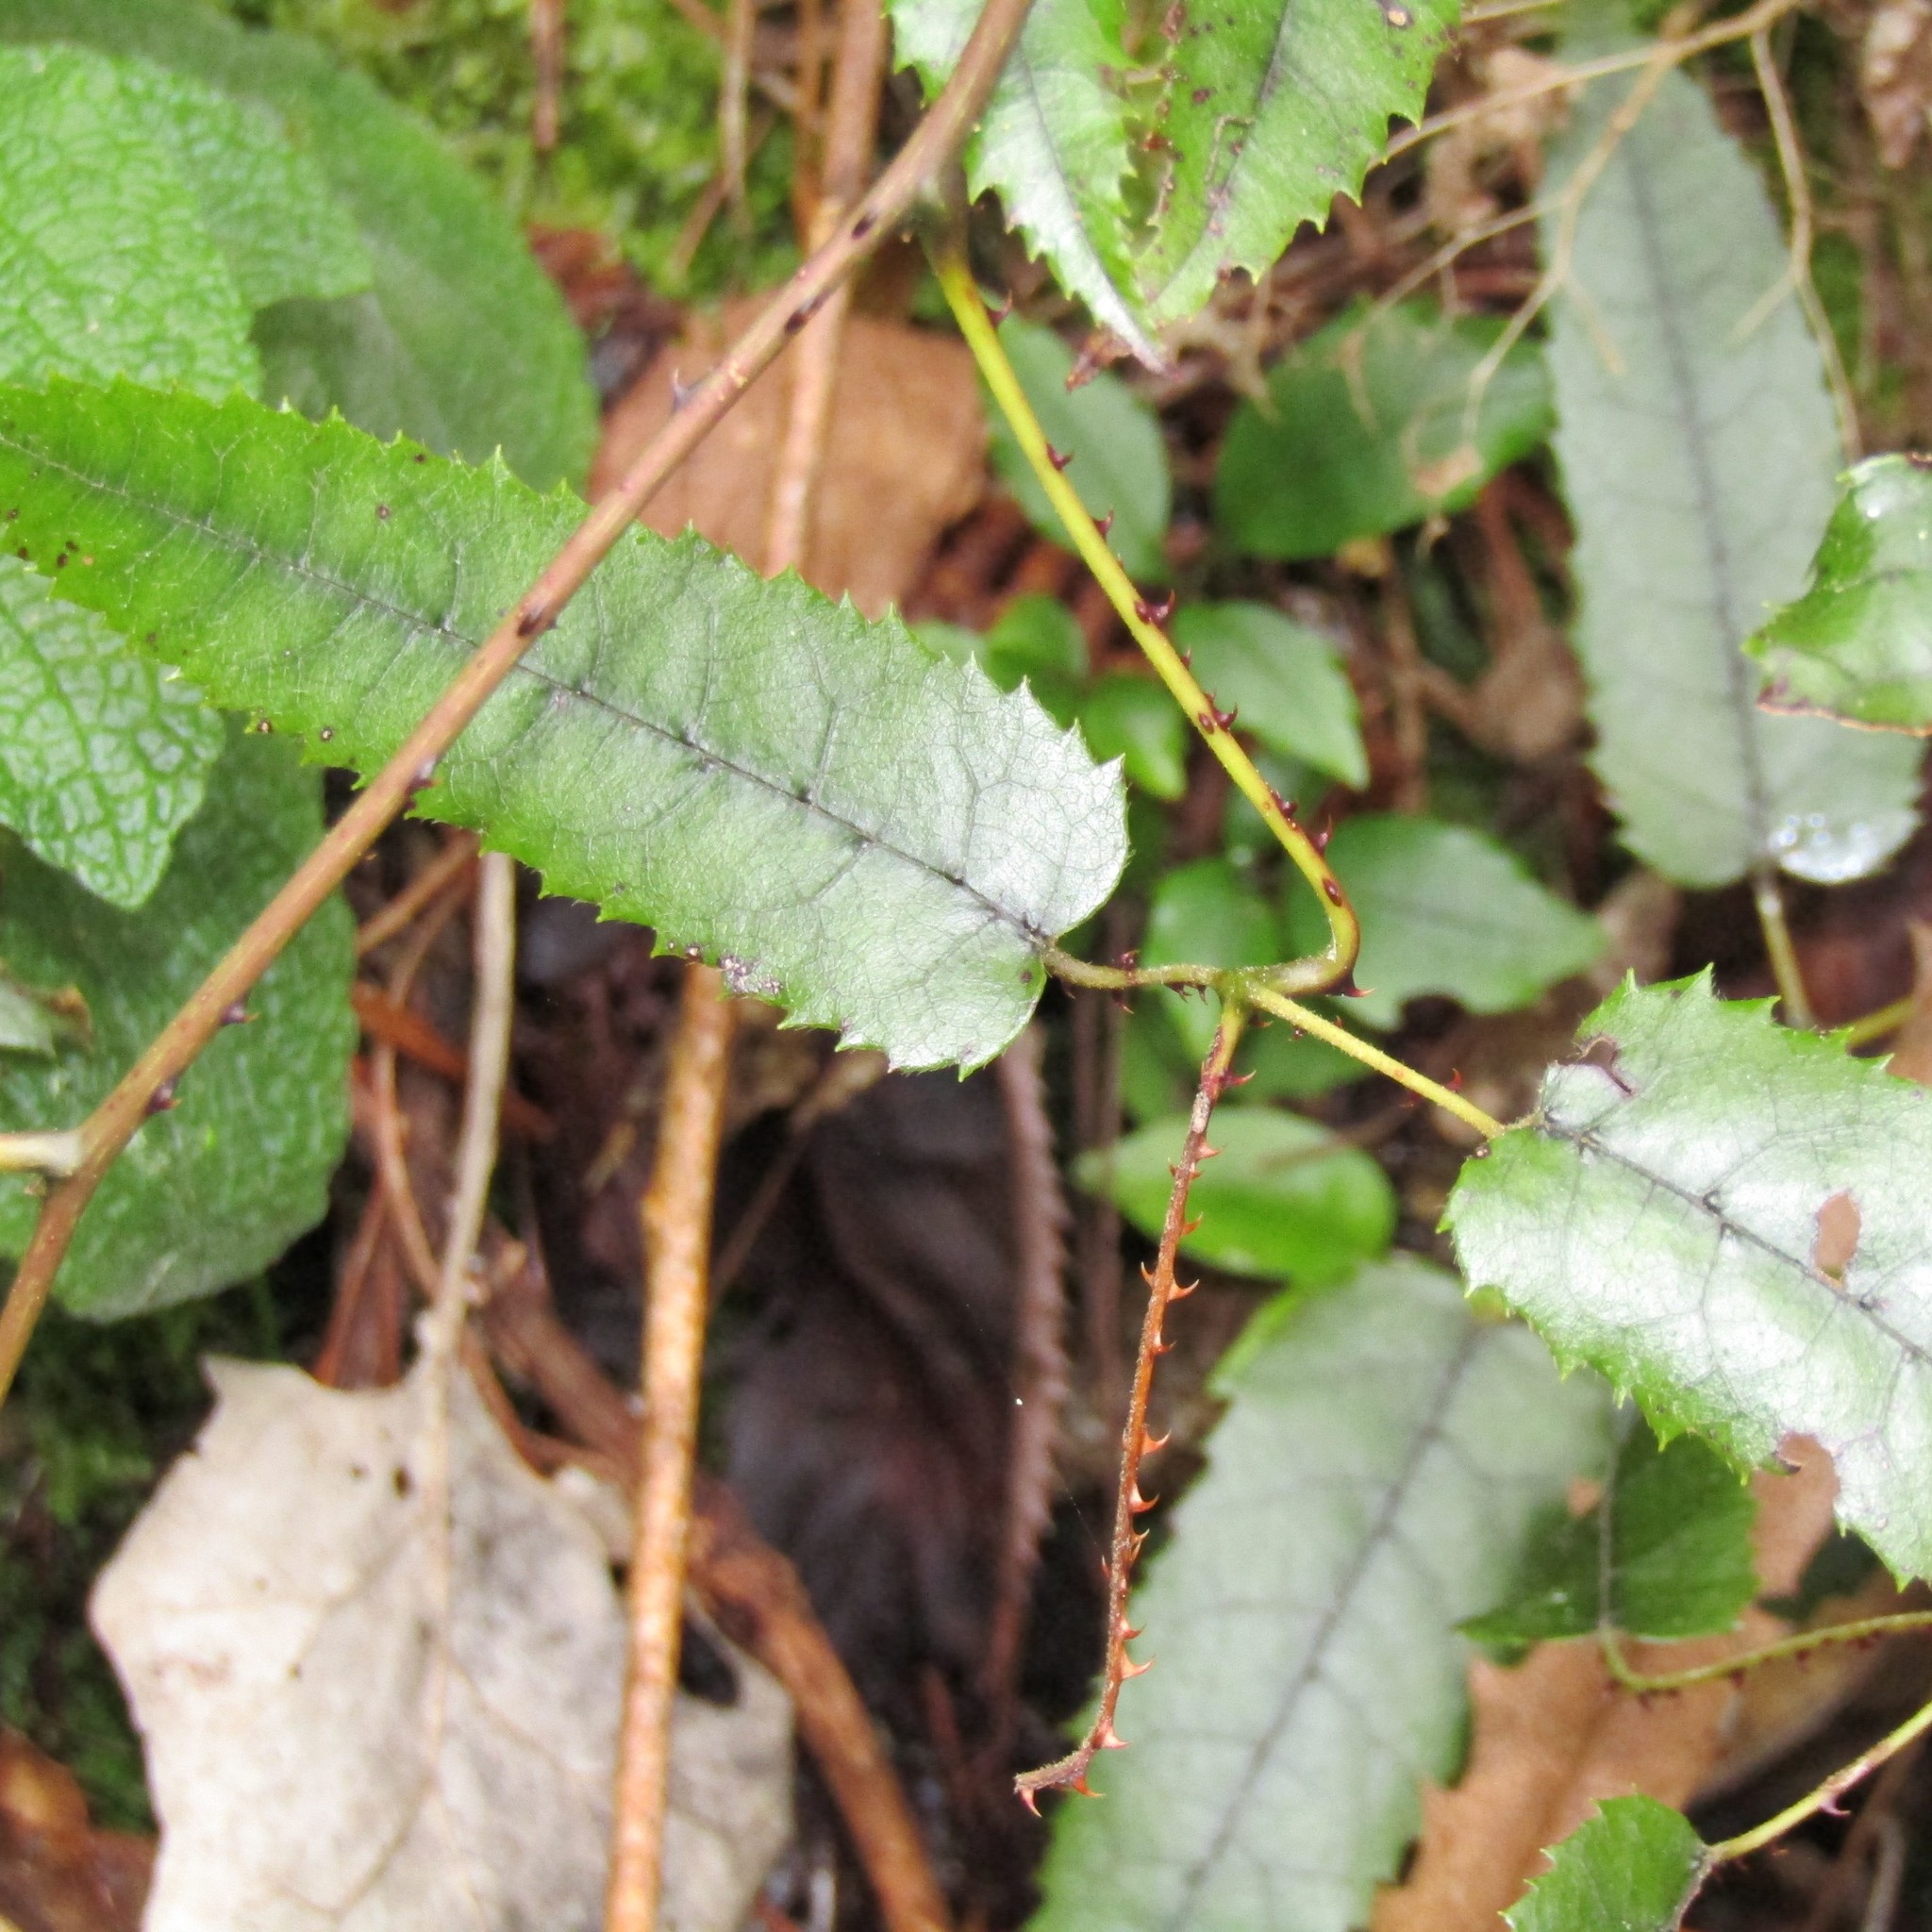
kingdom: Plantae
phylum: Tracheophyta
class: Magnoliopsida
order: Rosales
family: Rosaceae
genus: Rubus
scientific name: Rubus cissoides
